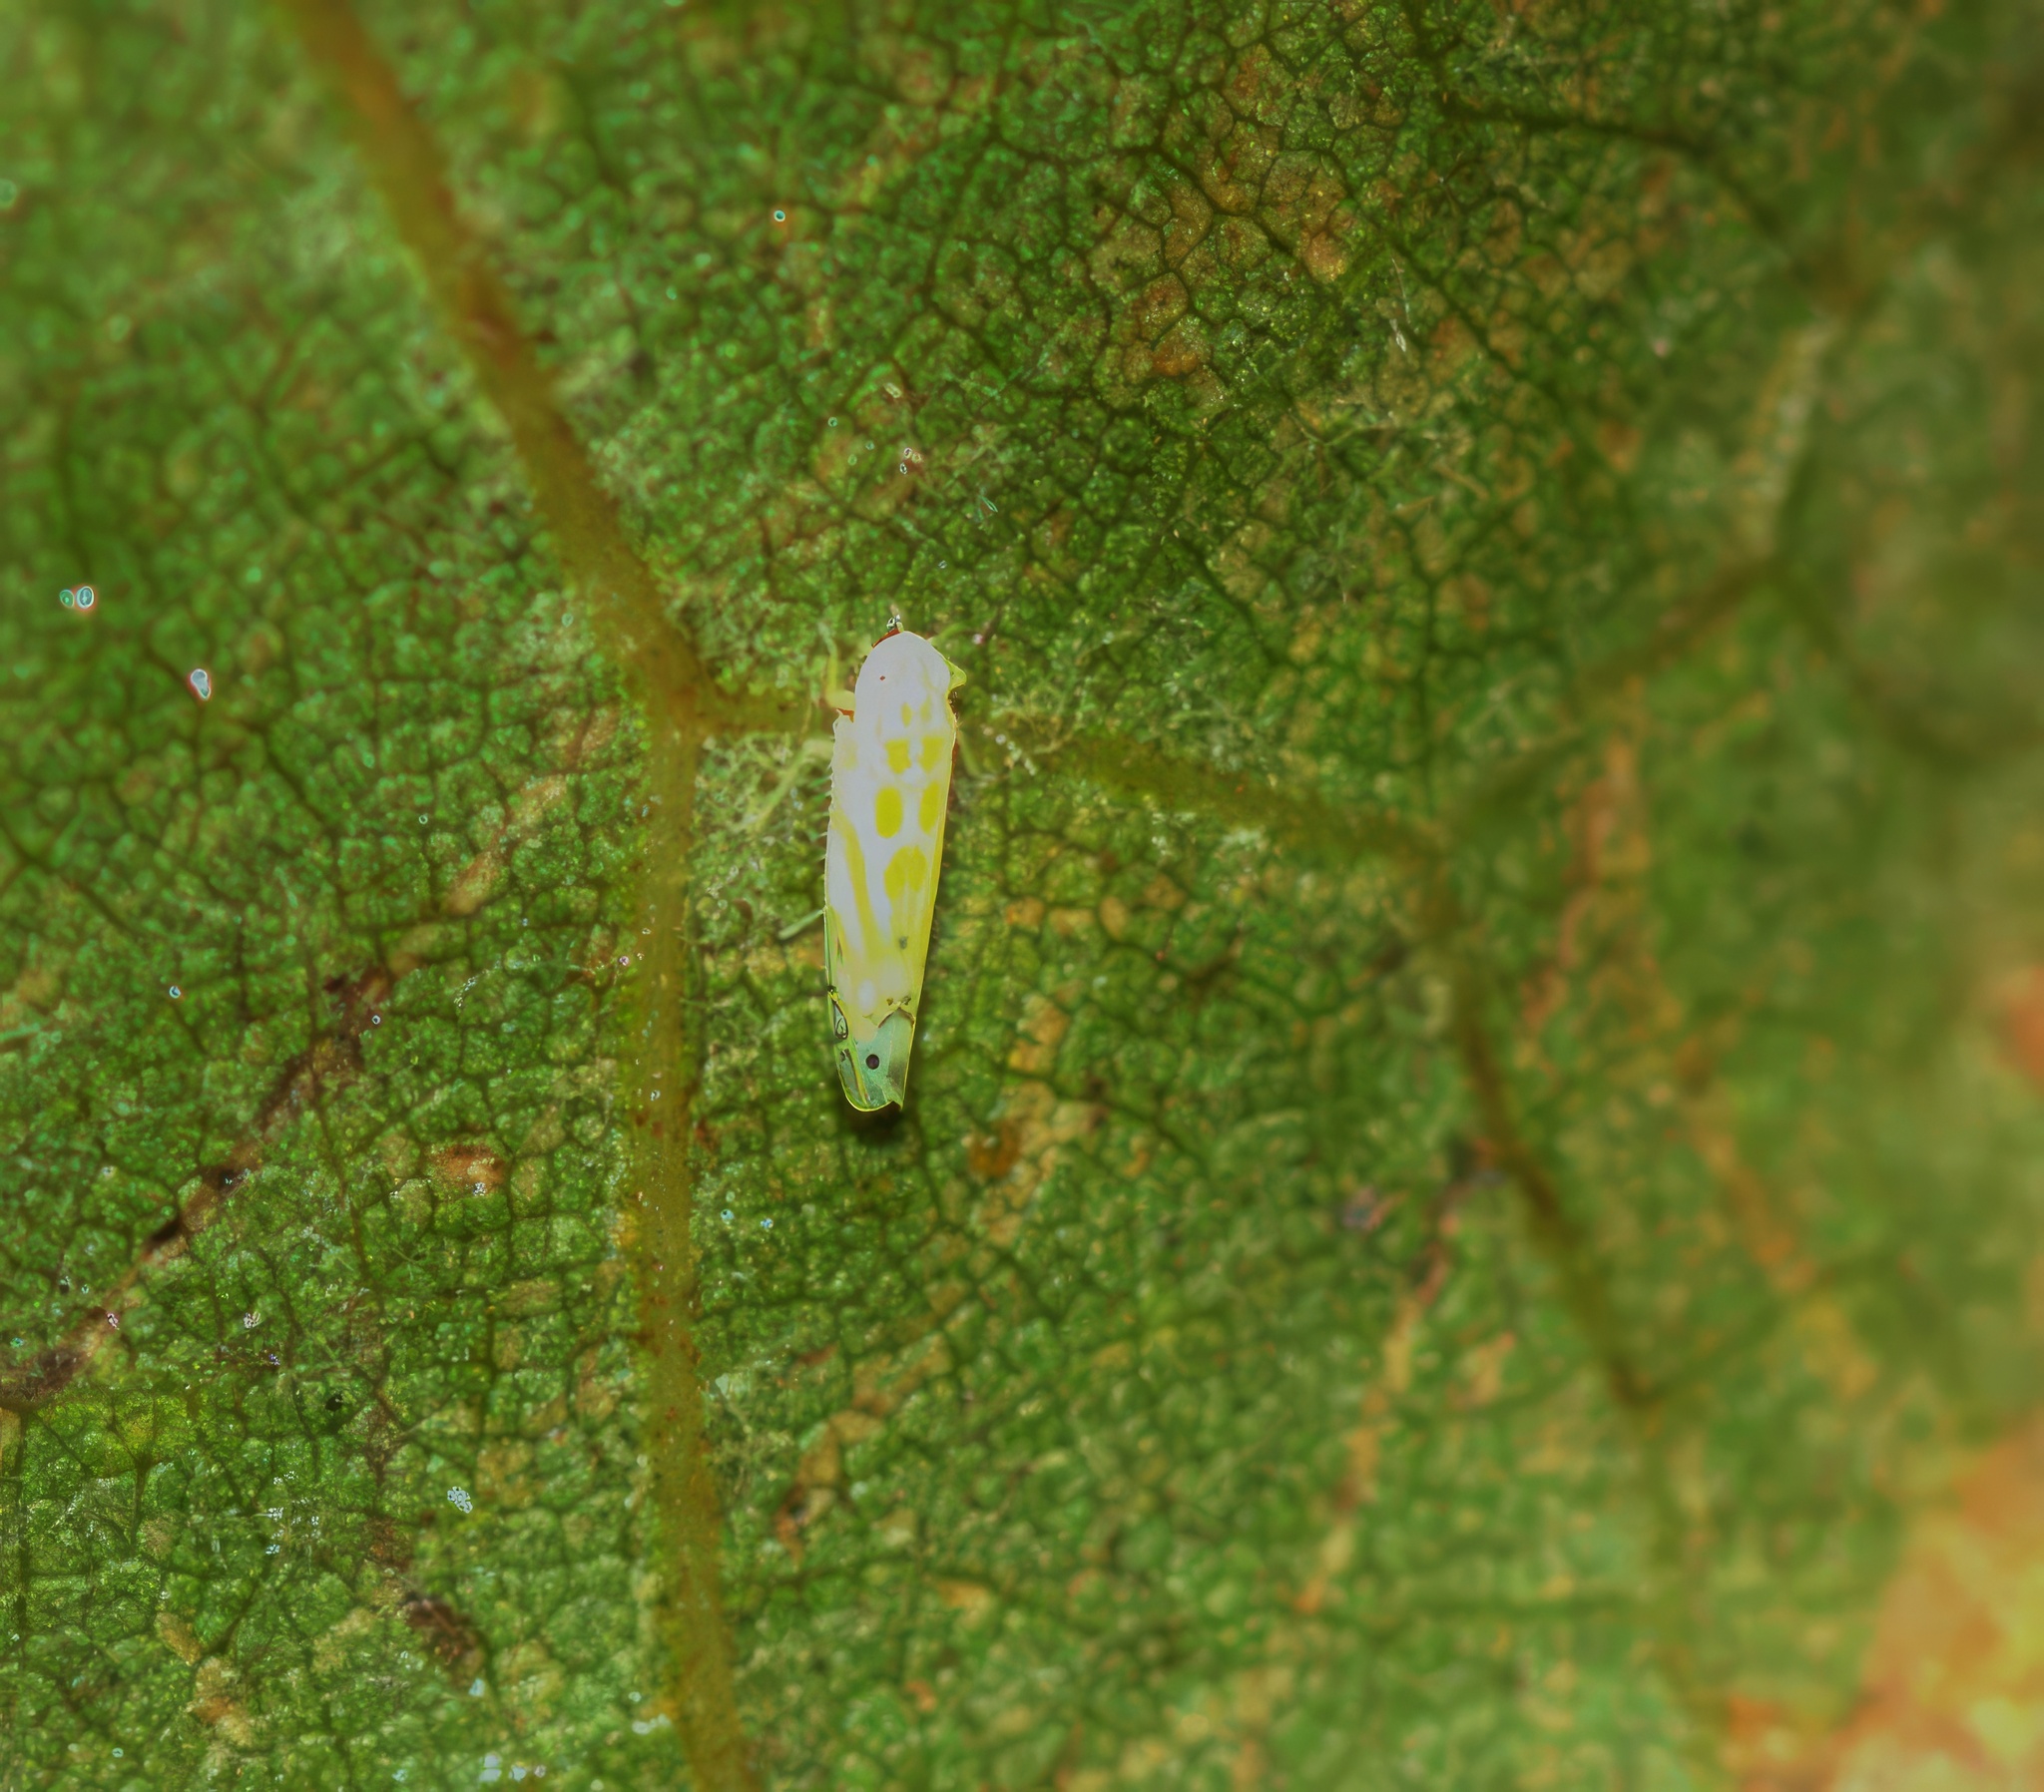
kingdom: Animalia
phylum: Arthropoda
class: Insecta
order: Hemiptera
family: Cicadellidae
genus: Alconeura
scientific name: Alconeura quadrimaculata
